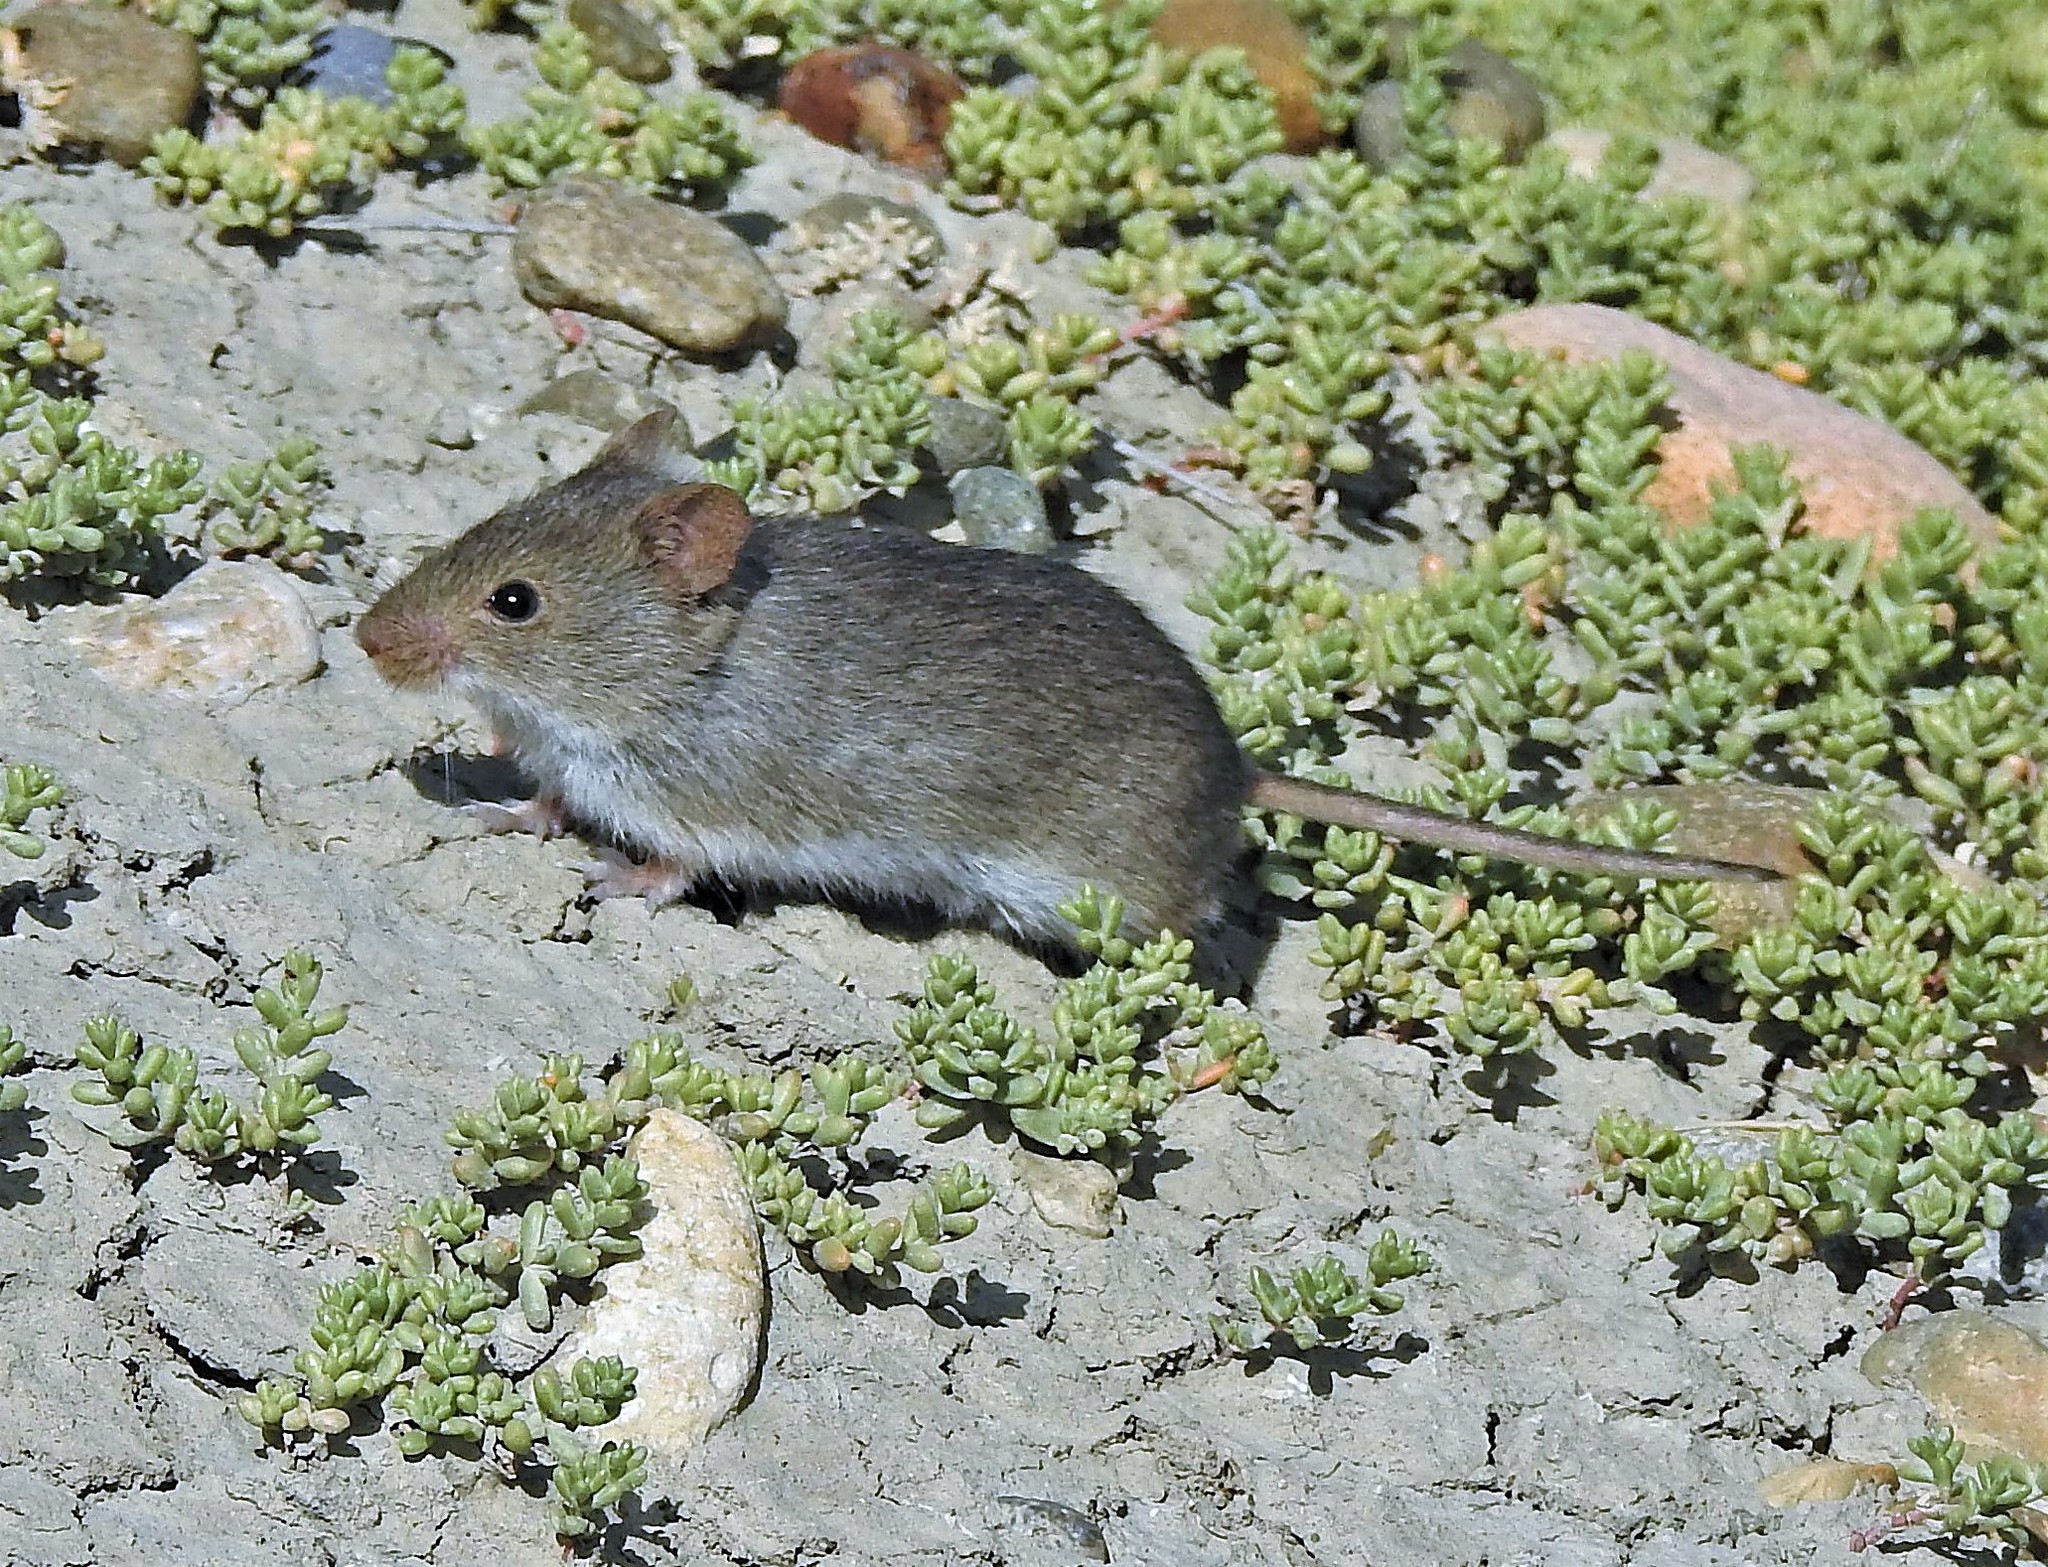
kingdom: Animalia
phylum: Chordata
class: Mammalia
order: Rodentia
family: Cricetidae
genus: Abrothrix
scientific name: Abrothrix olivaceus
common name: Olive-colored akodont
